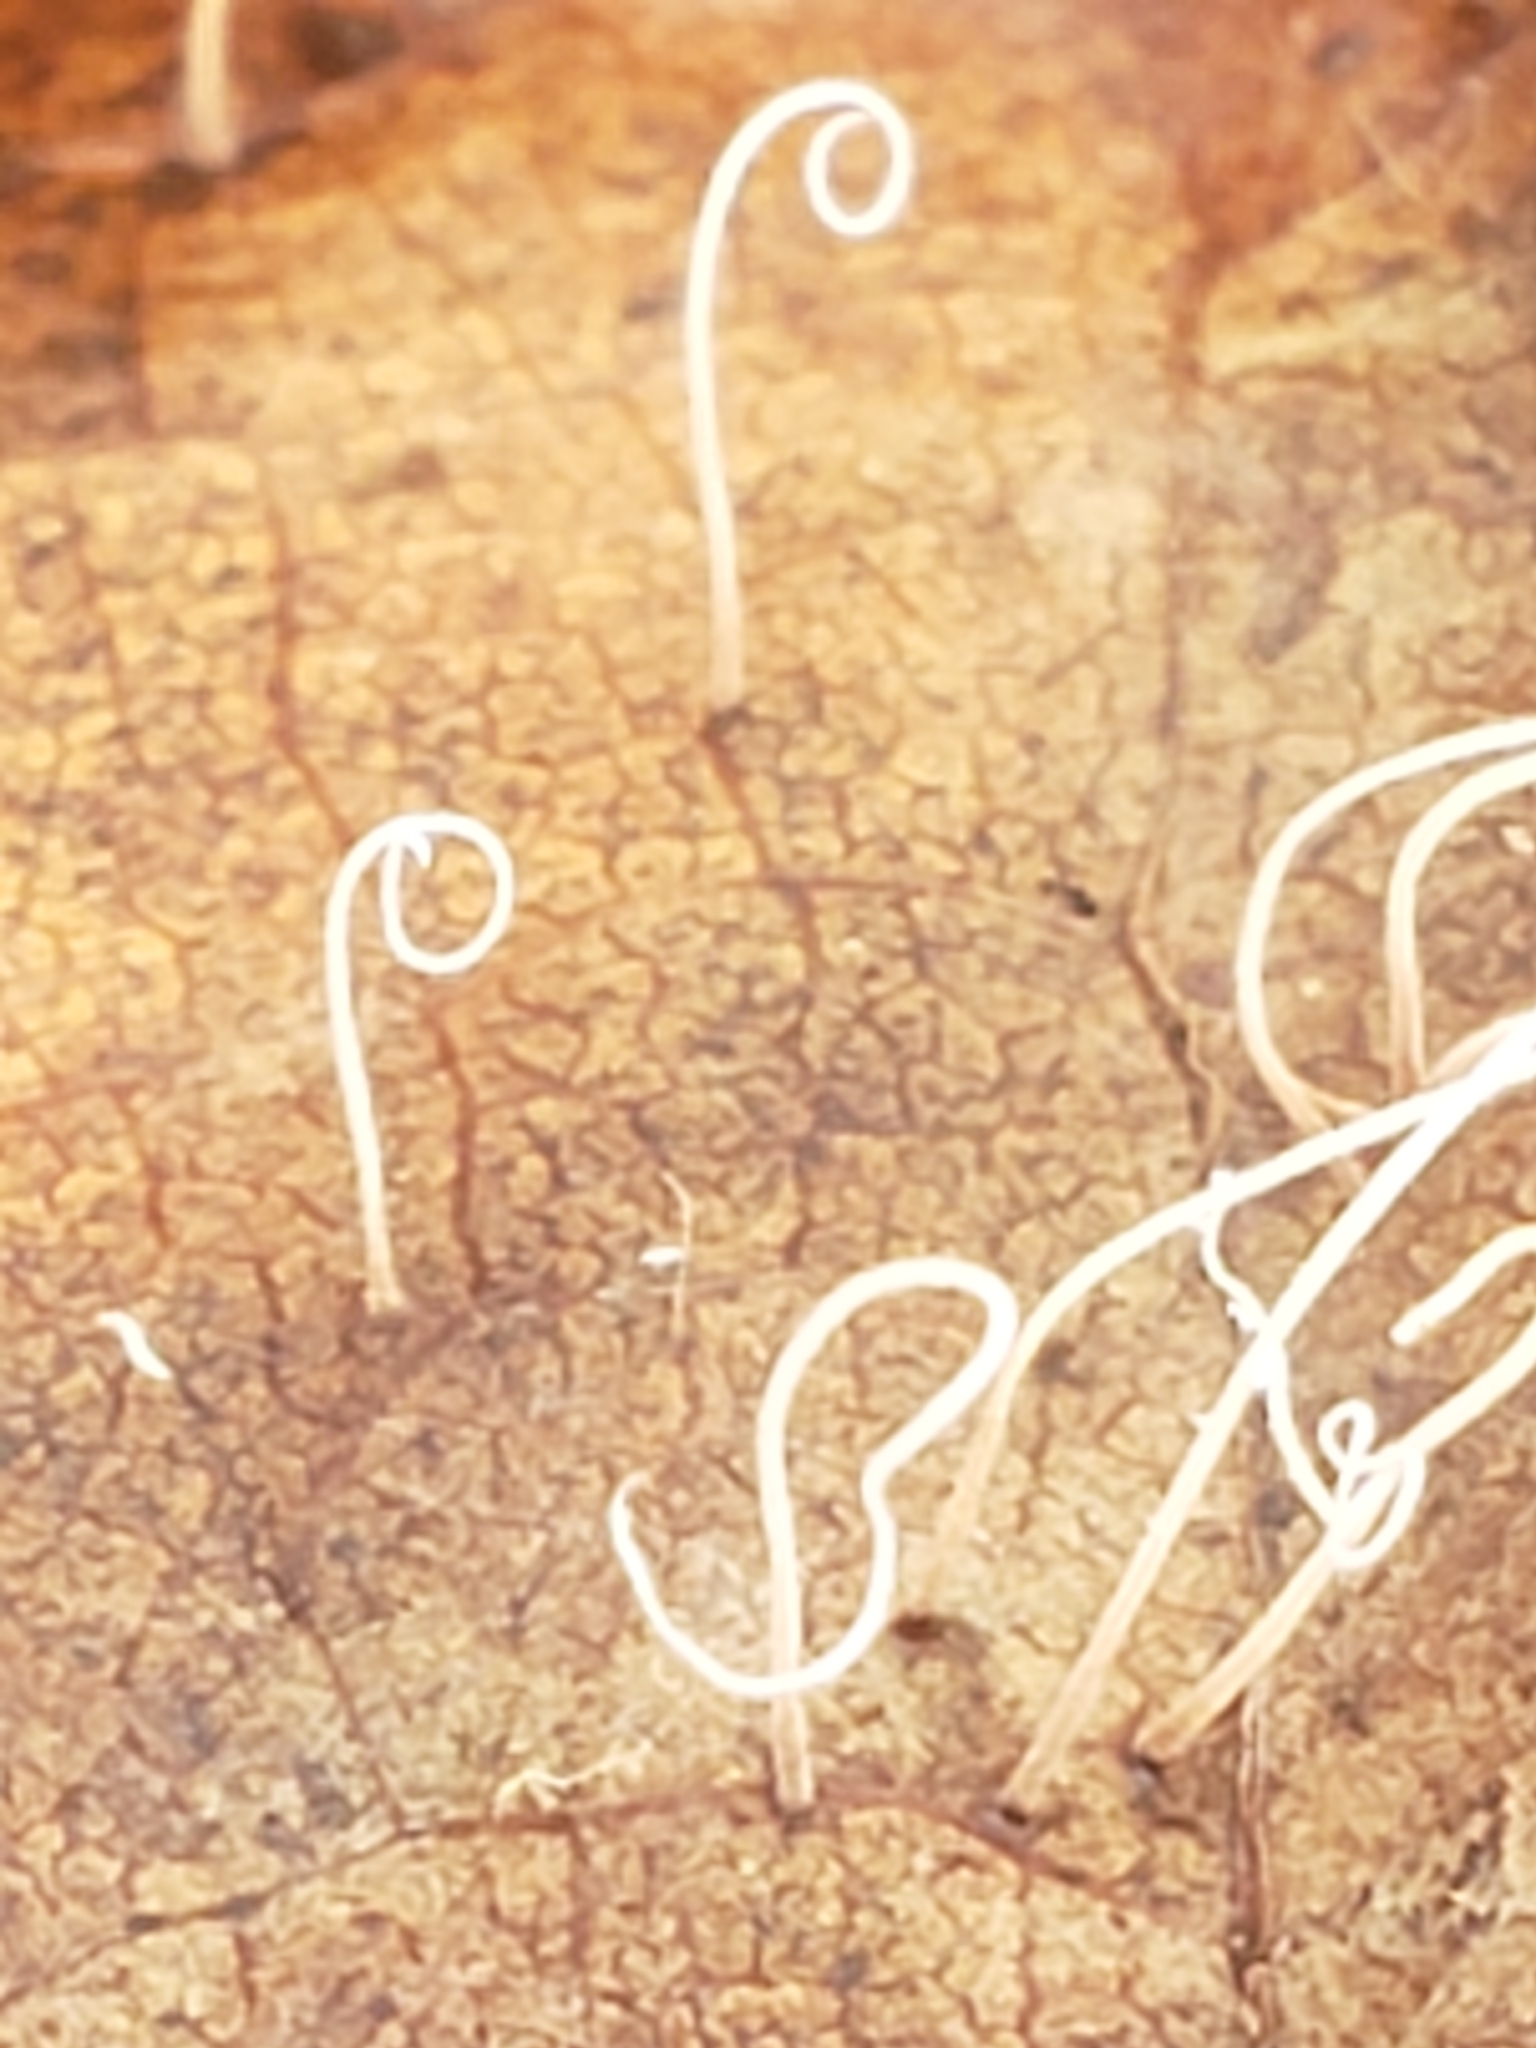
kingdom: Fungi
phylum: Basidiomycota
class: Agaricomycetes
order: Agaricales
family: Typhulaceae
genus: Typhula
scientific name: Typhula juncea
